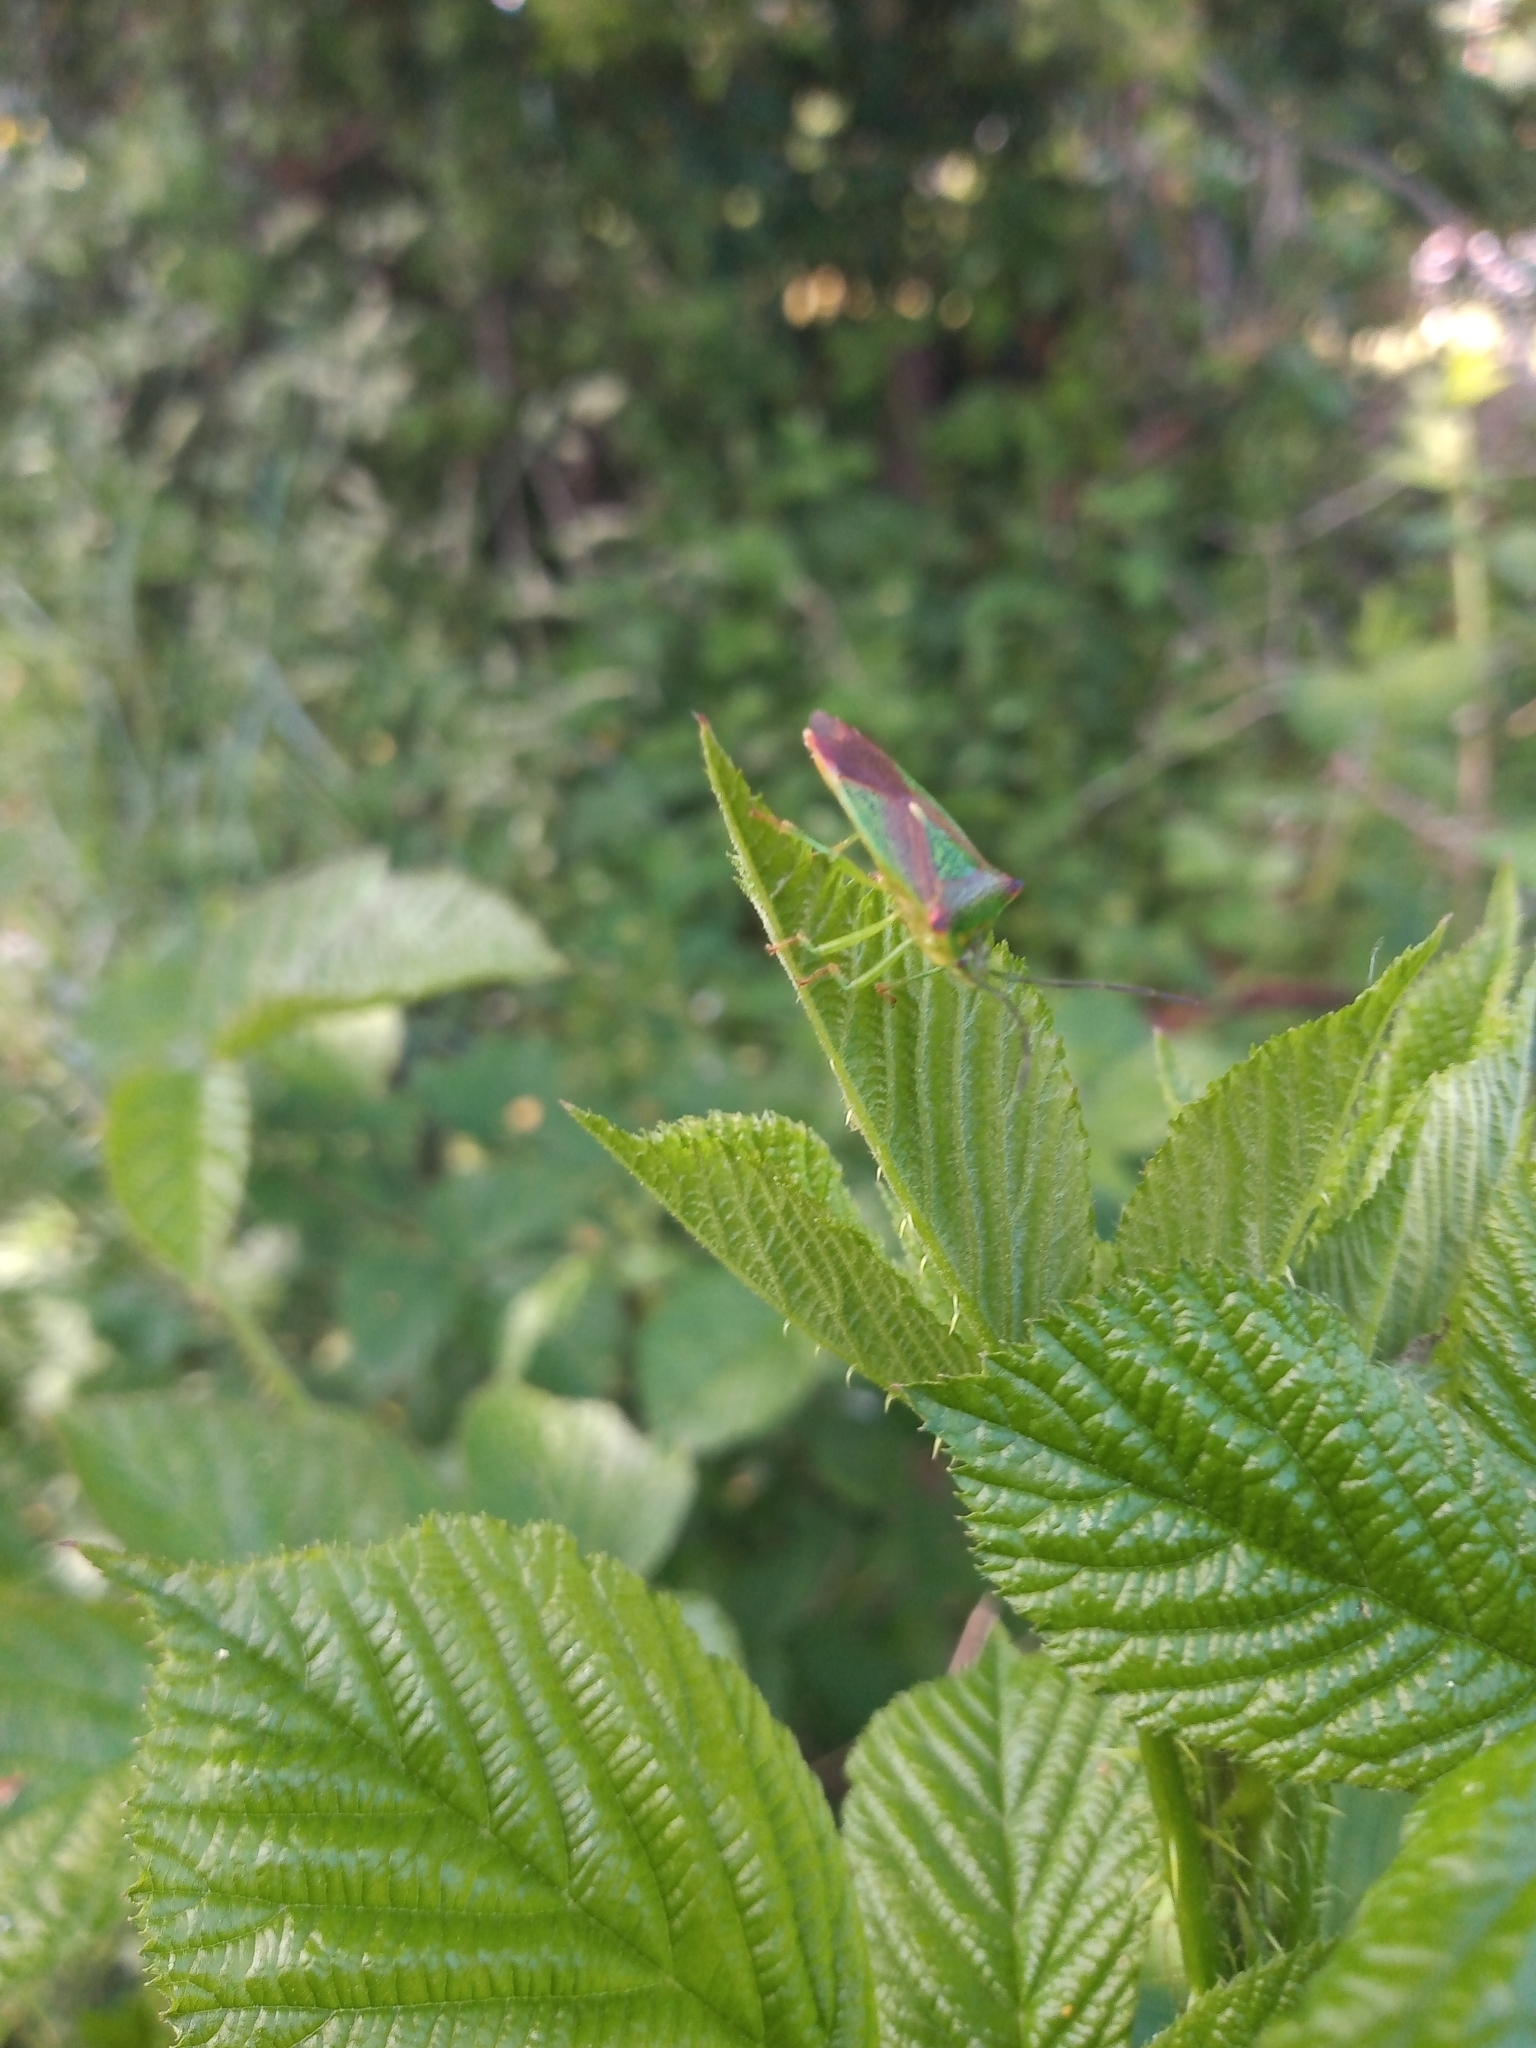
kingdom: Animalia
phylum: Arthropoda
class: Insecta
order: Hemiptera
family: Acanthosomatidae
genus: Acanthosoma
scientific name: Acanthosoma haemorrhoidale
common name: Hawthorn shieldbug
